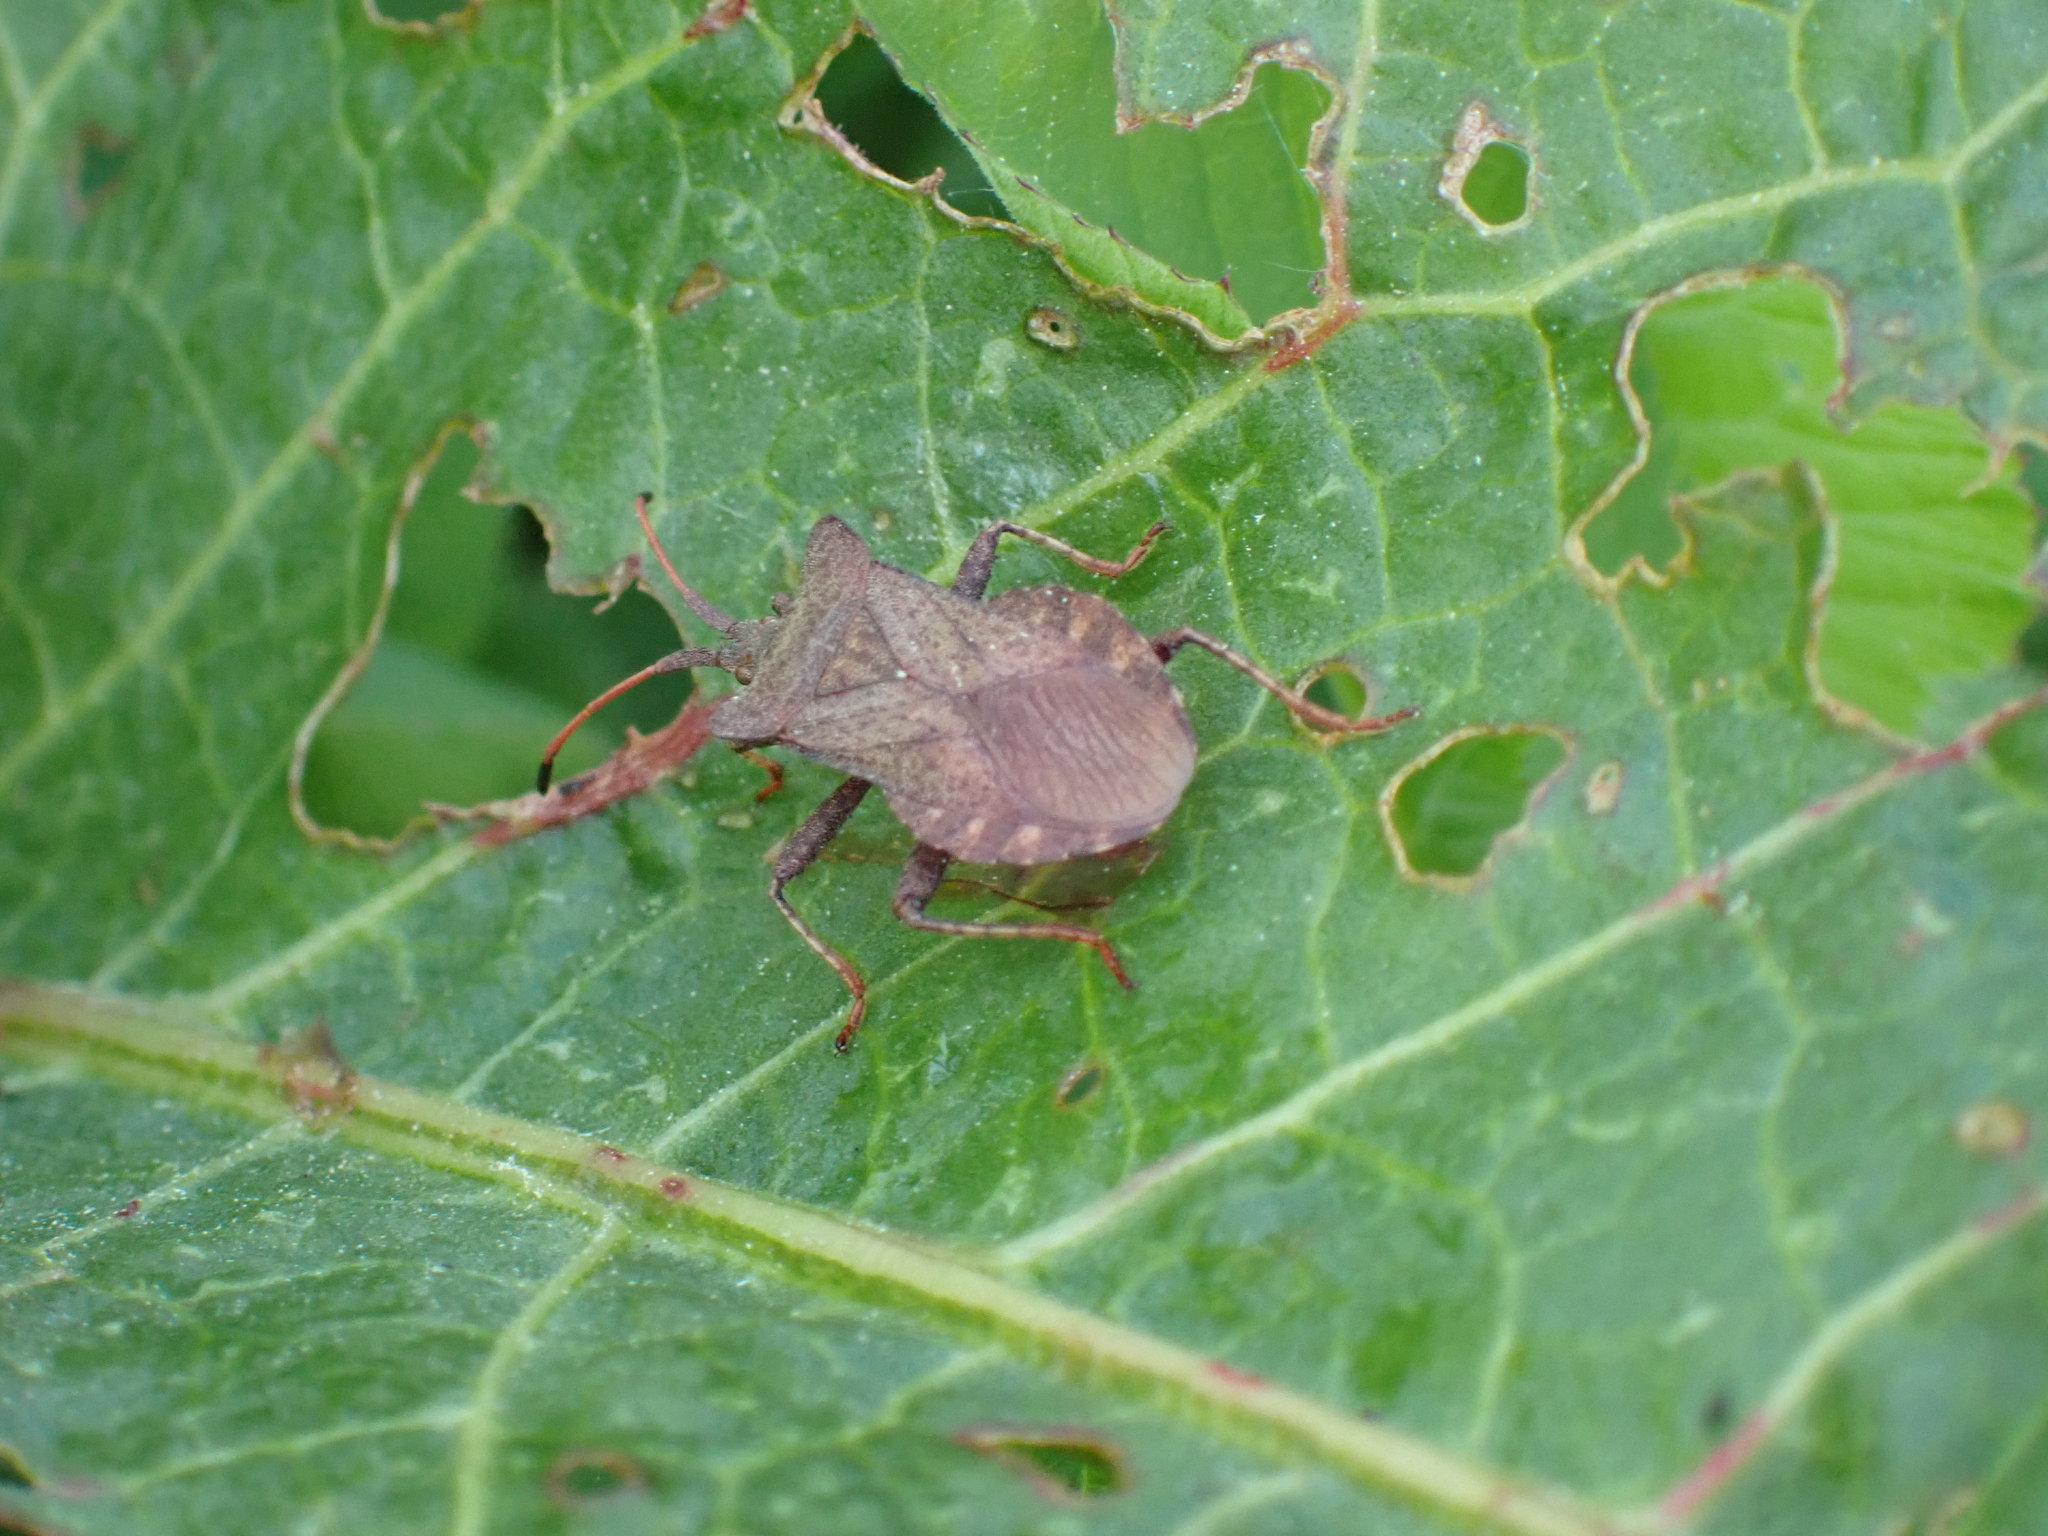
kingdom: Animalia
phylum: Arthropoda
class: Insecta
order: Hemiptera
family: Coreidae
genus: Coreus
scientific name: Coreus marginatus
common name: Dock bug
